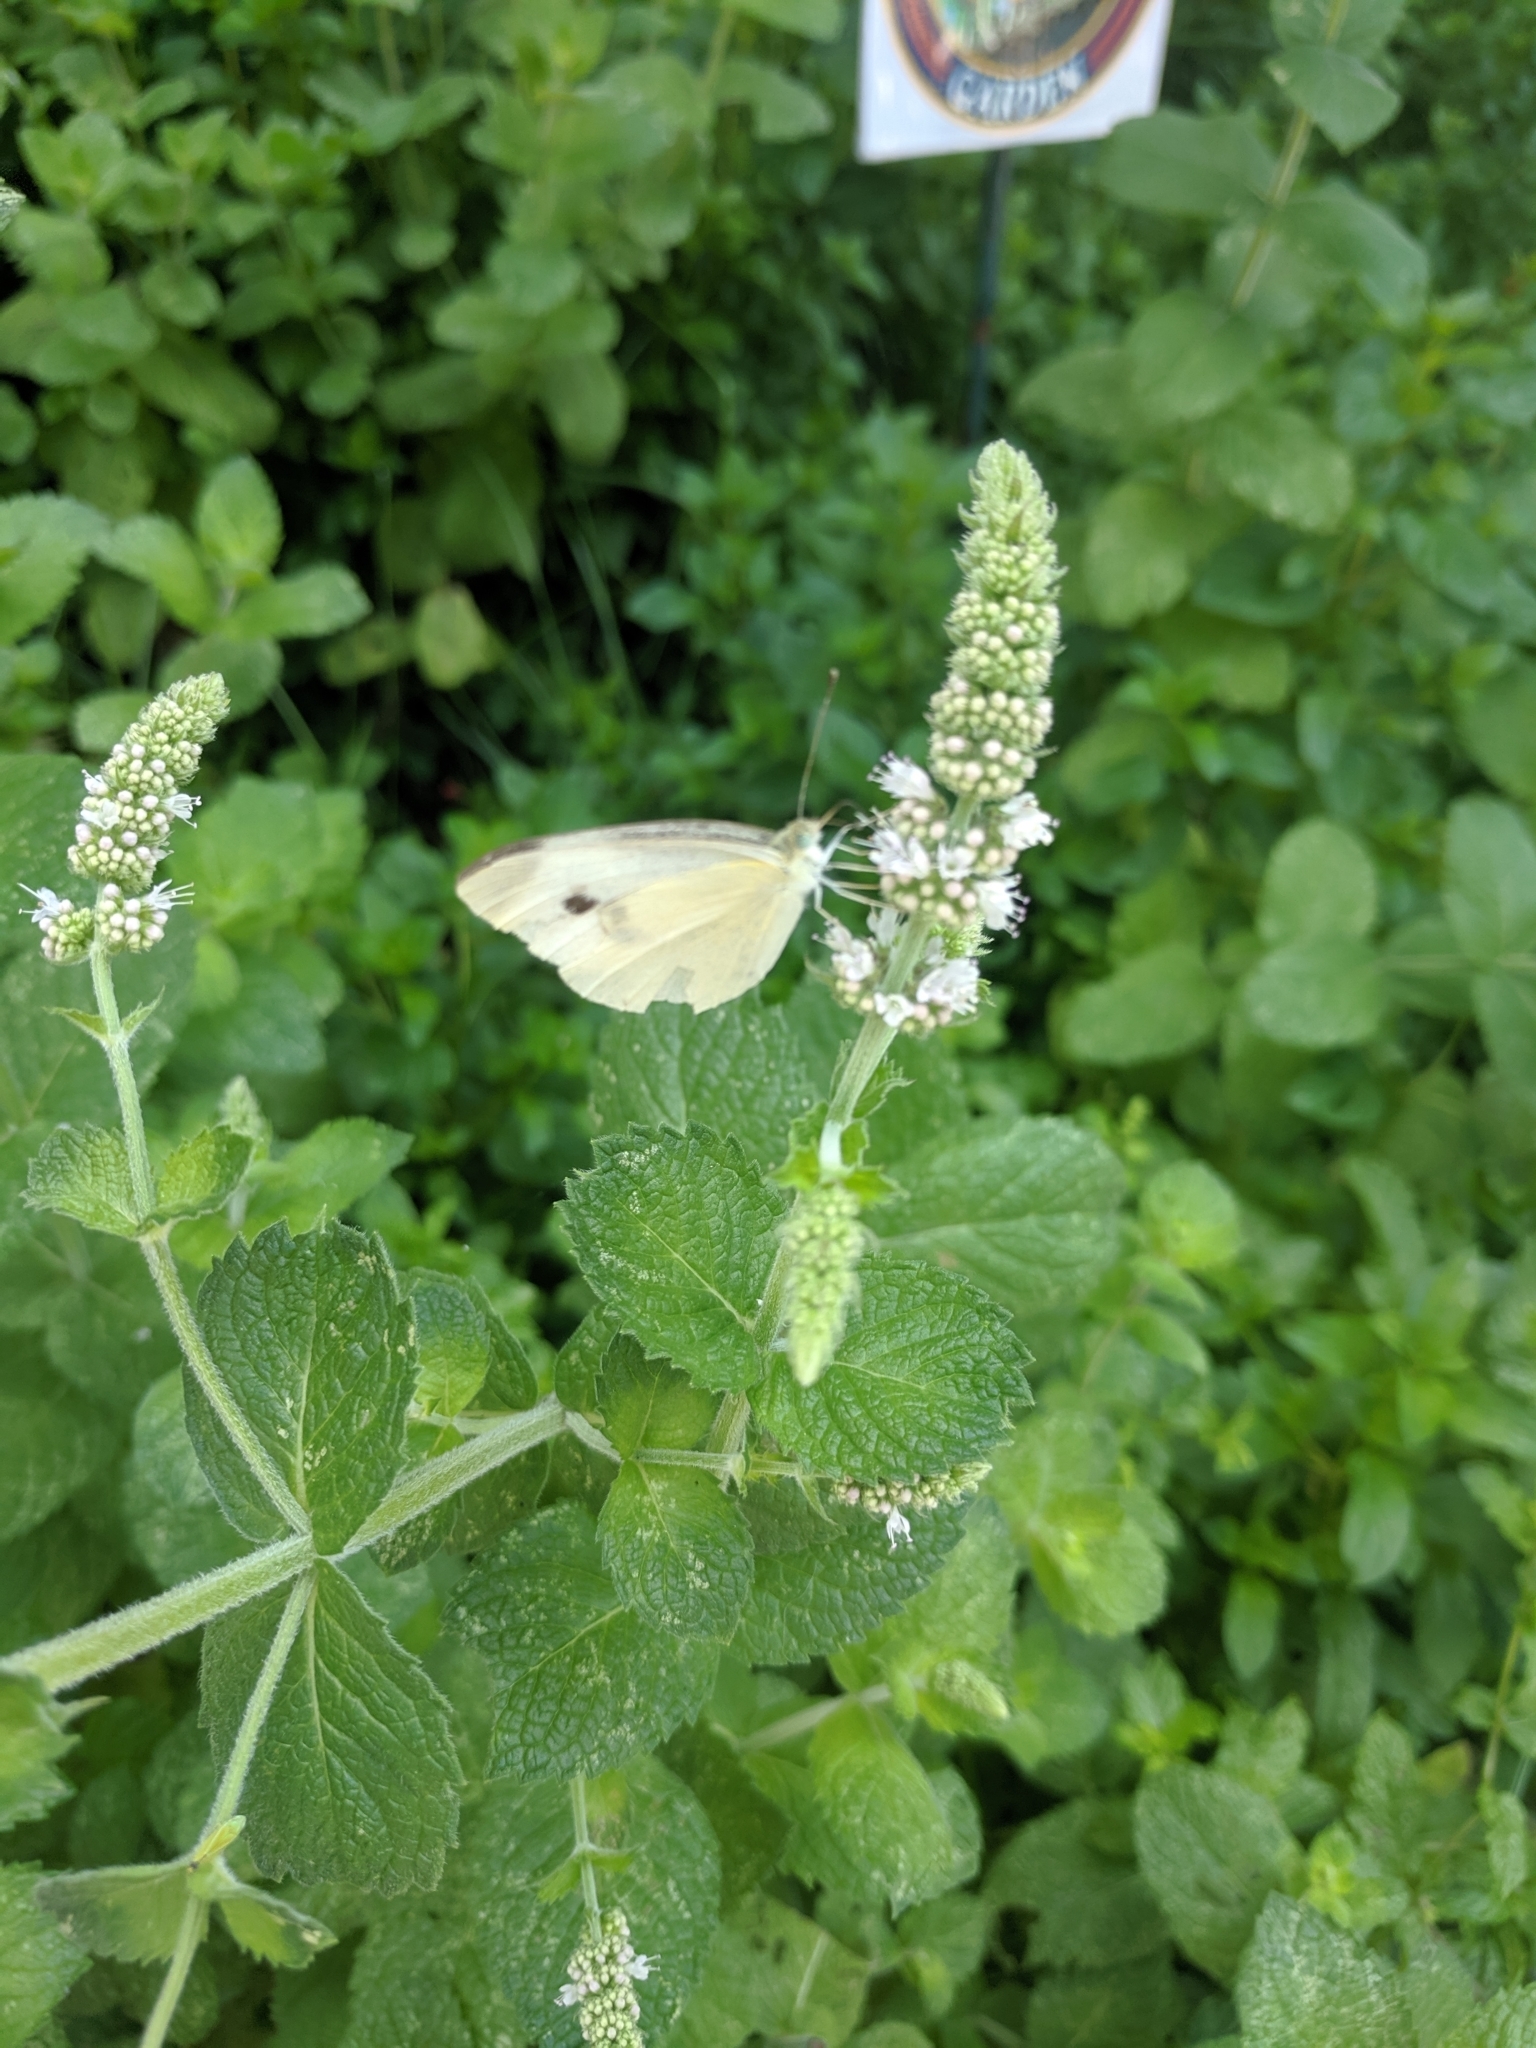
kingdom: Animalia
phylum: Arthropoda
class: Insecta
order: Lepidoptera
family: Pieridae
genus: Pieris
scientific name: Pieris rapae
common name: Small white
